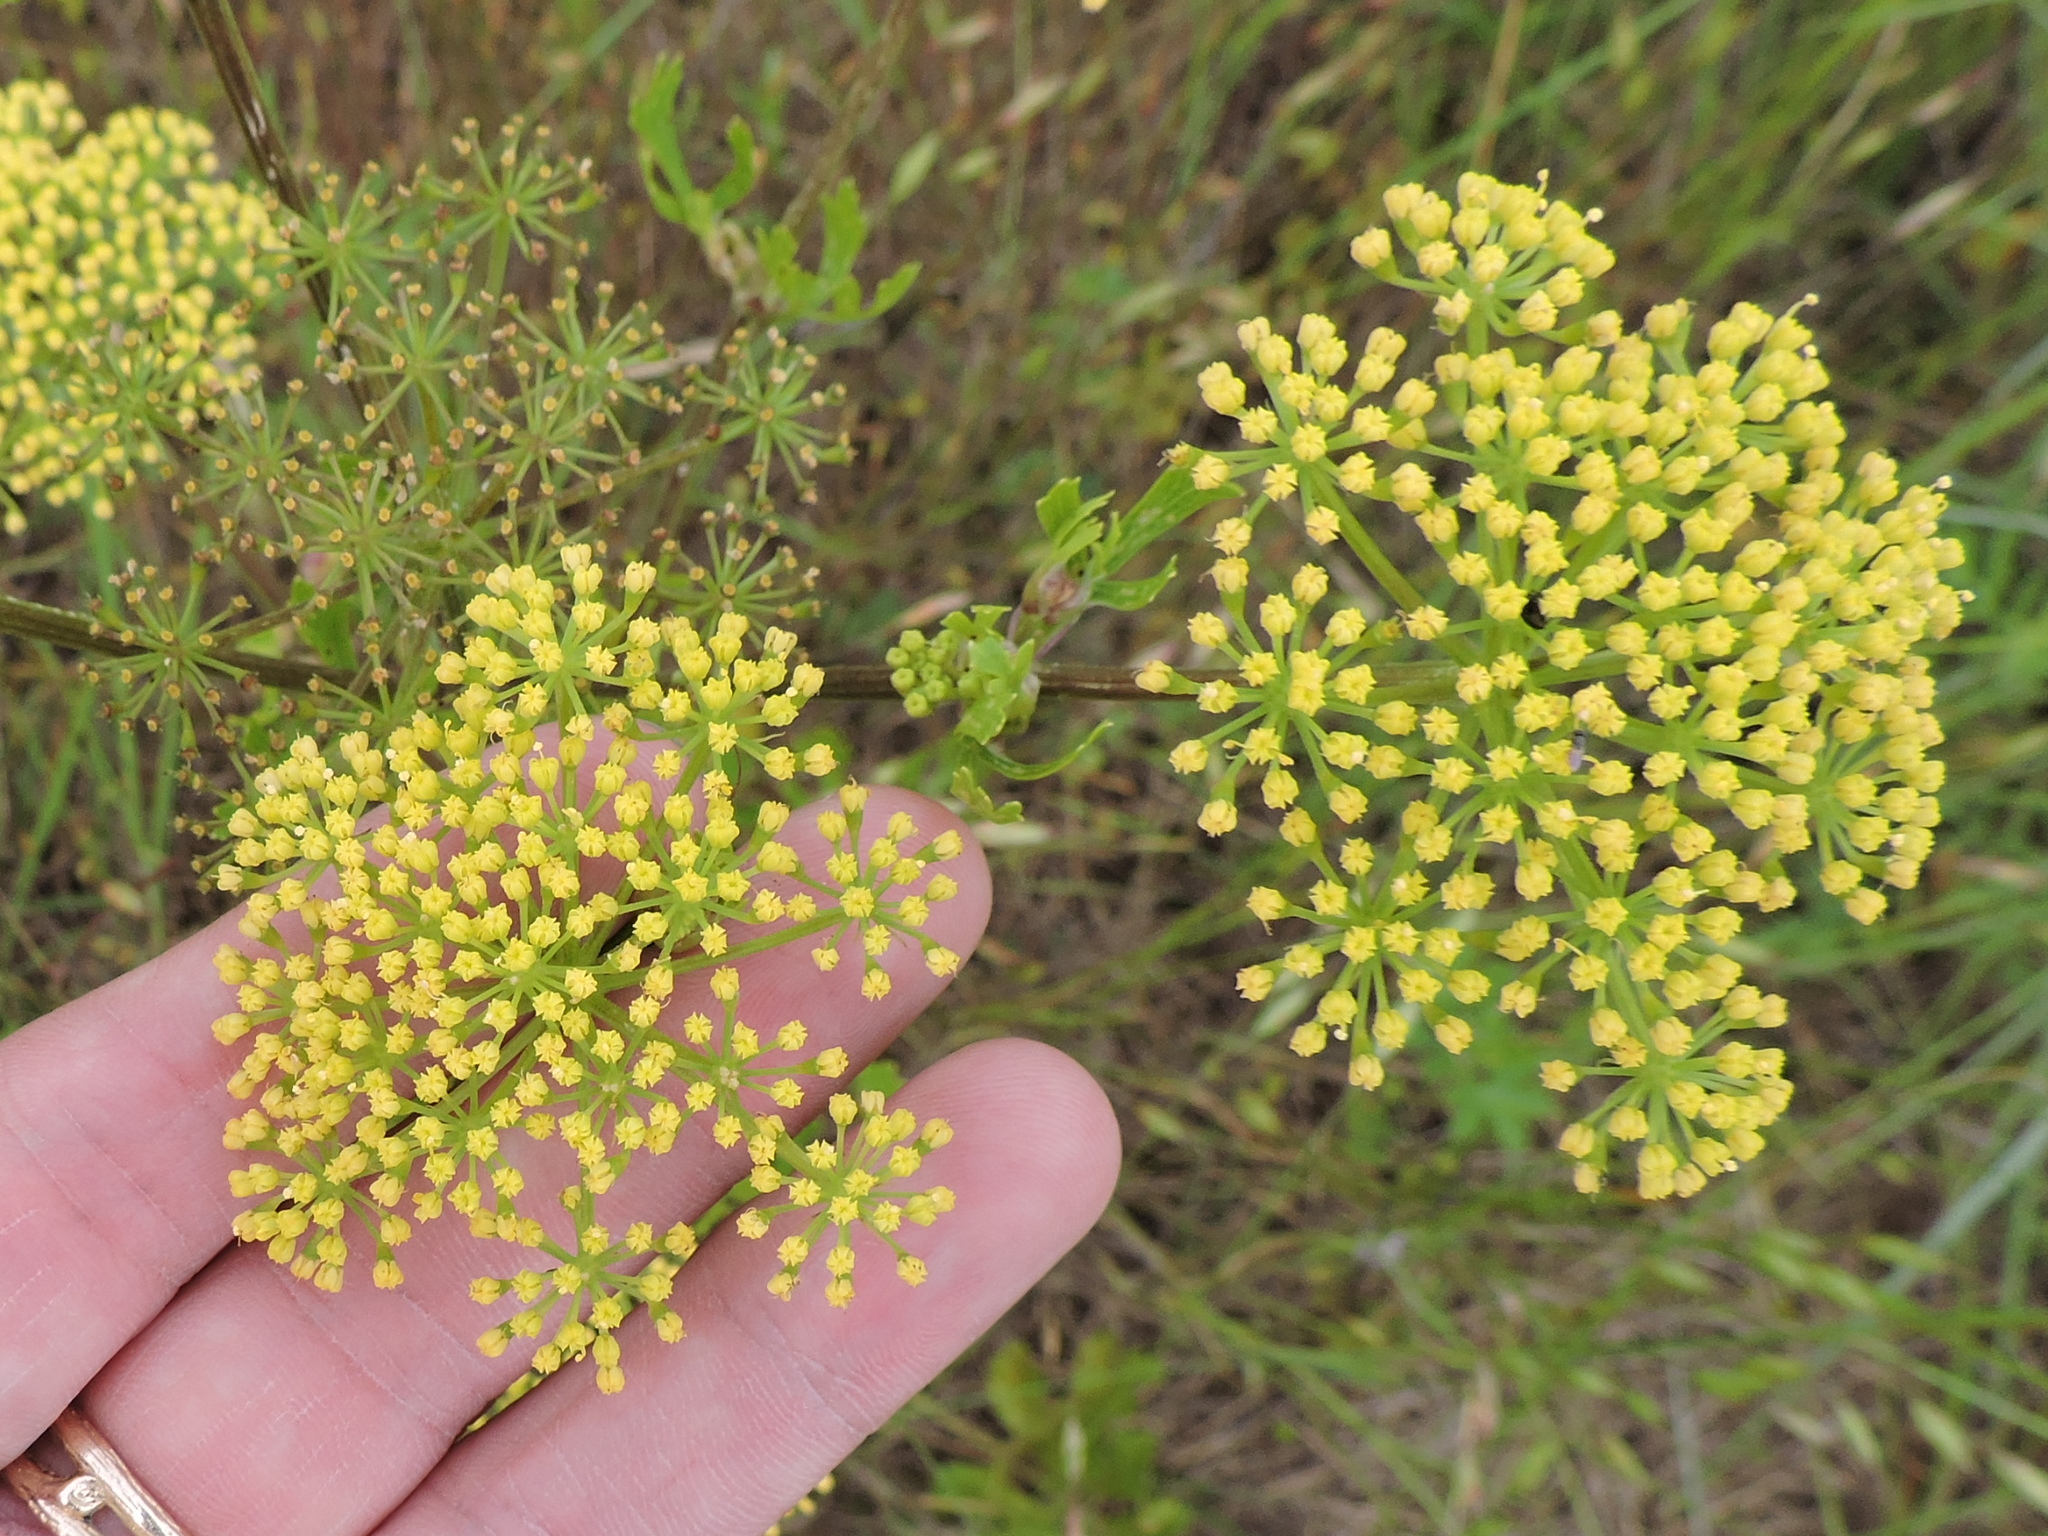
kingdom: Plantae
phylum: Tracheophyta
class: Magnoliopsida
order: Apiales
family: Apiaceae
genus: Polytaenia
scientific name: Polytaenia texana
